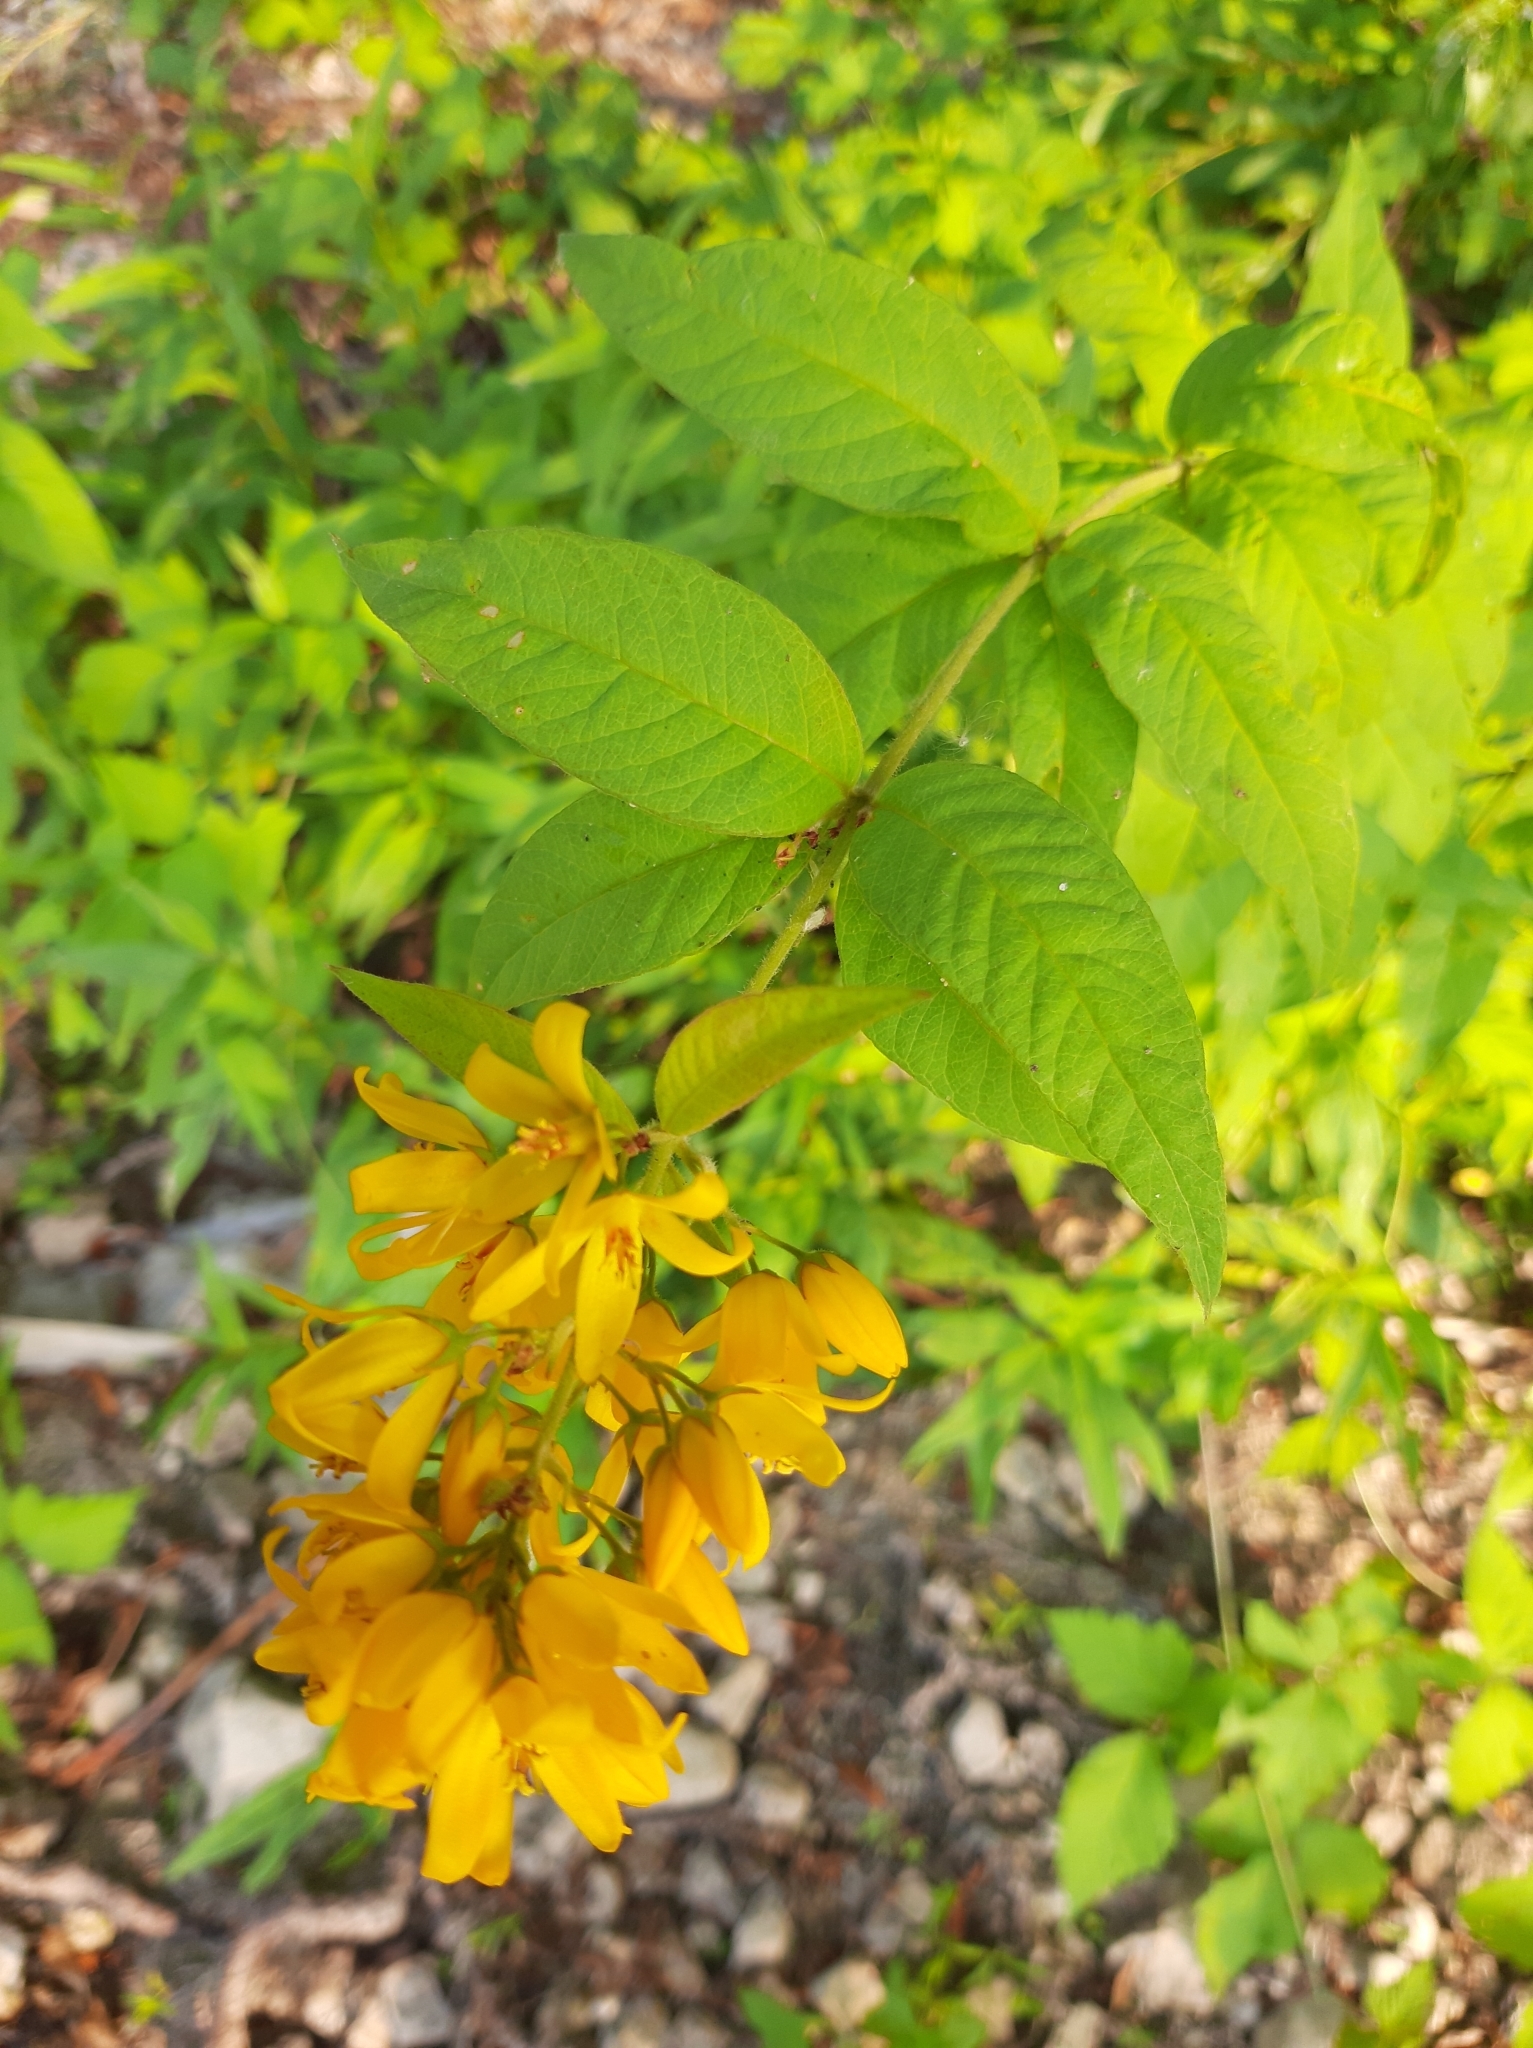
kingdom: Plantae
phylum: Tracheophyta
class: Magnoliopsida
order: Ericales
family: Primulaceae
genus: Lysimachia
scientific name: Lysimachia vulgaris
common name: Yellow loosestrife
